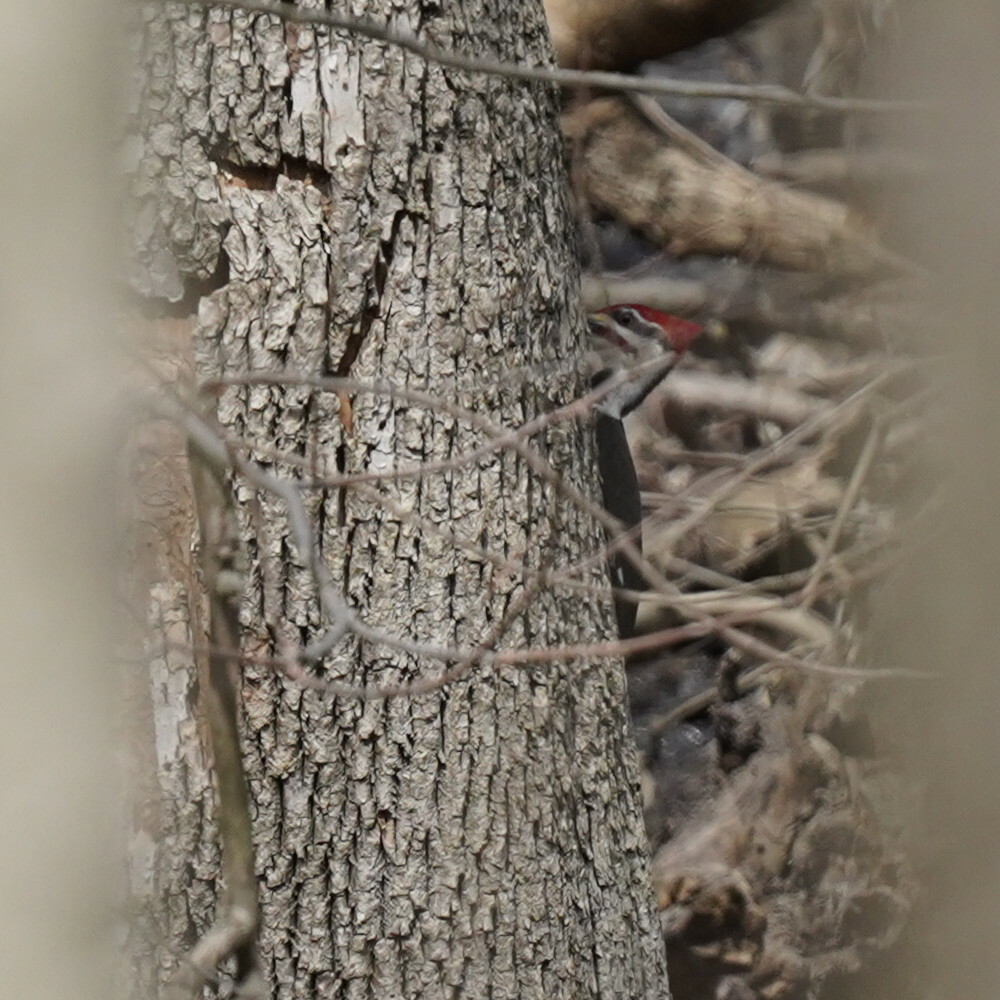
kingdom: Animalia
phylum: Chordata
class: Aves
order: Piciformes
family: Picidae
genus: Dryocopus
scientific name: Dryocopus pileatus
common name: Pileated woodpecker
